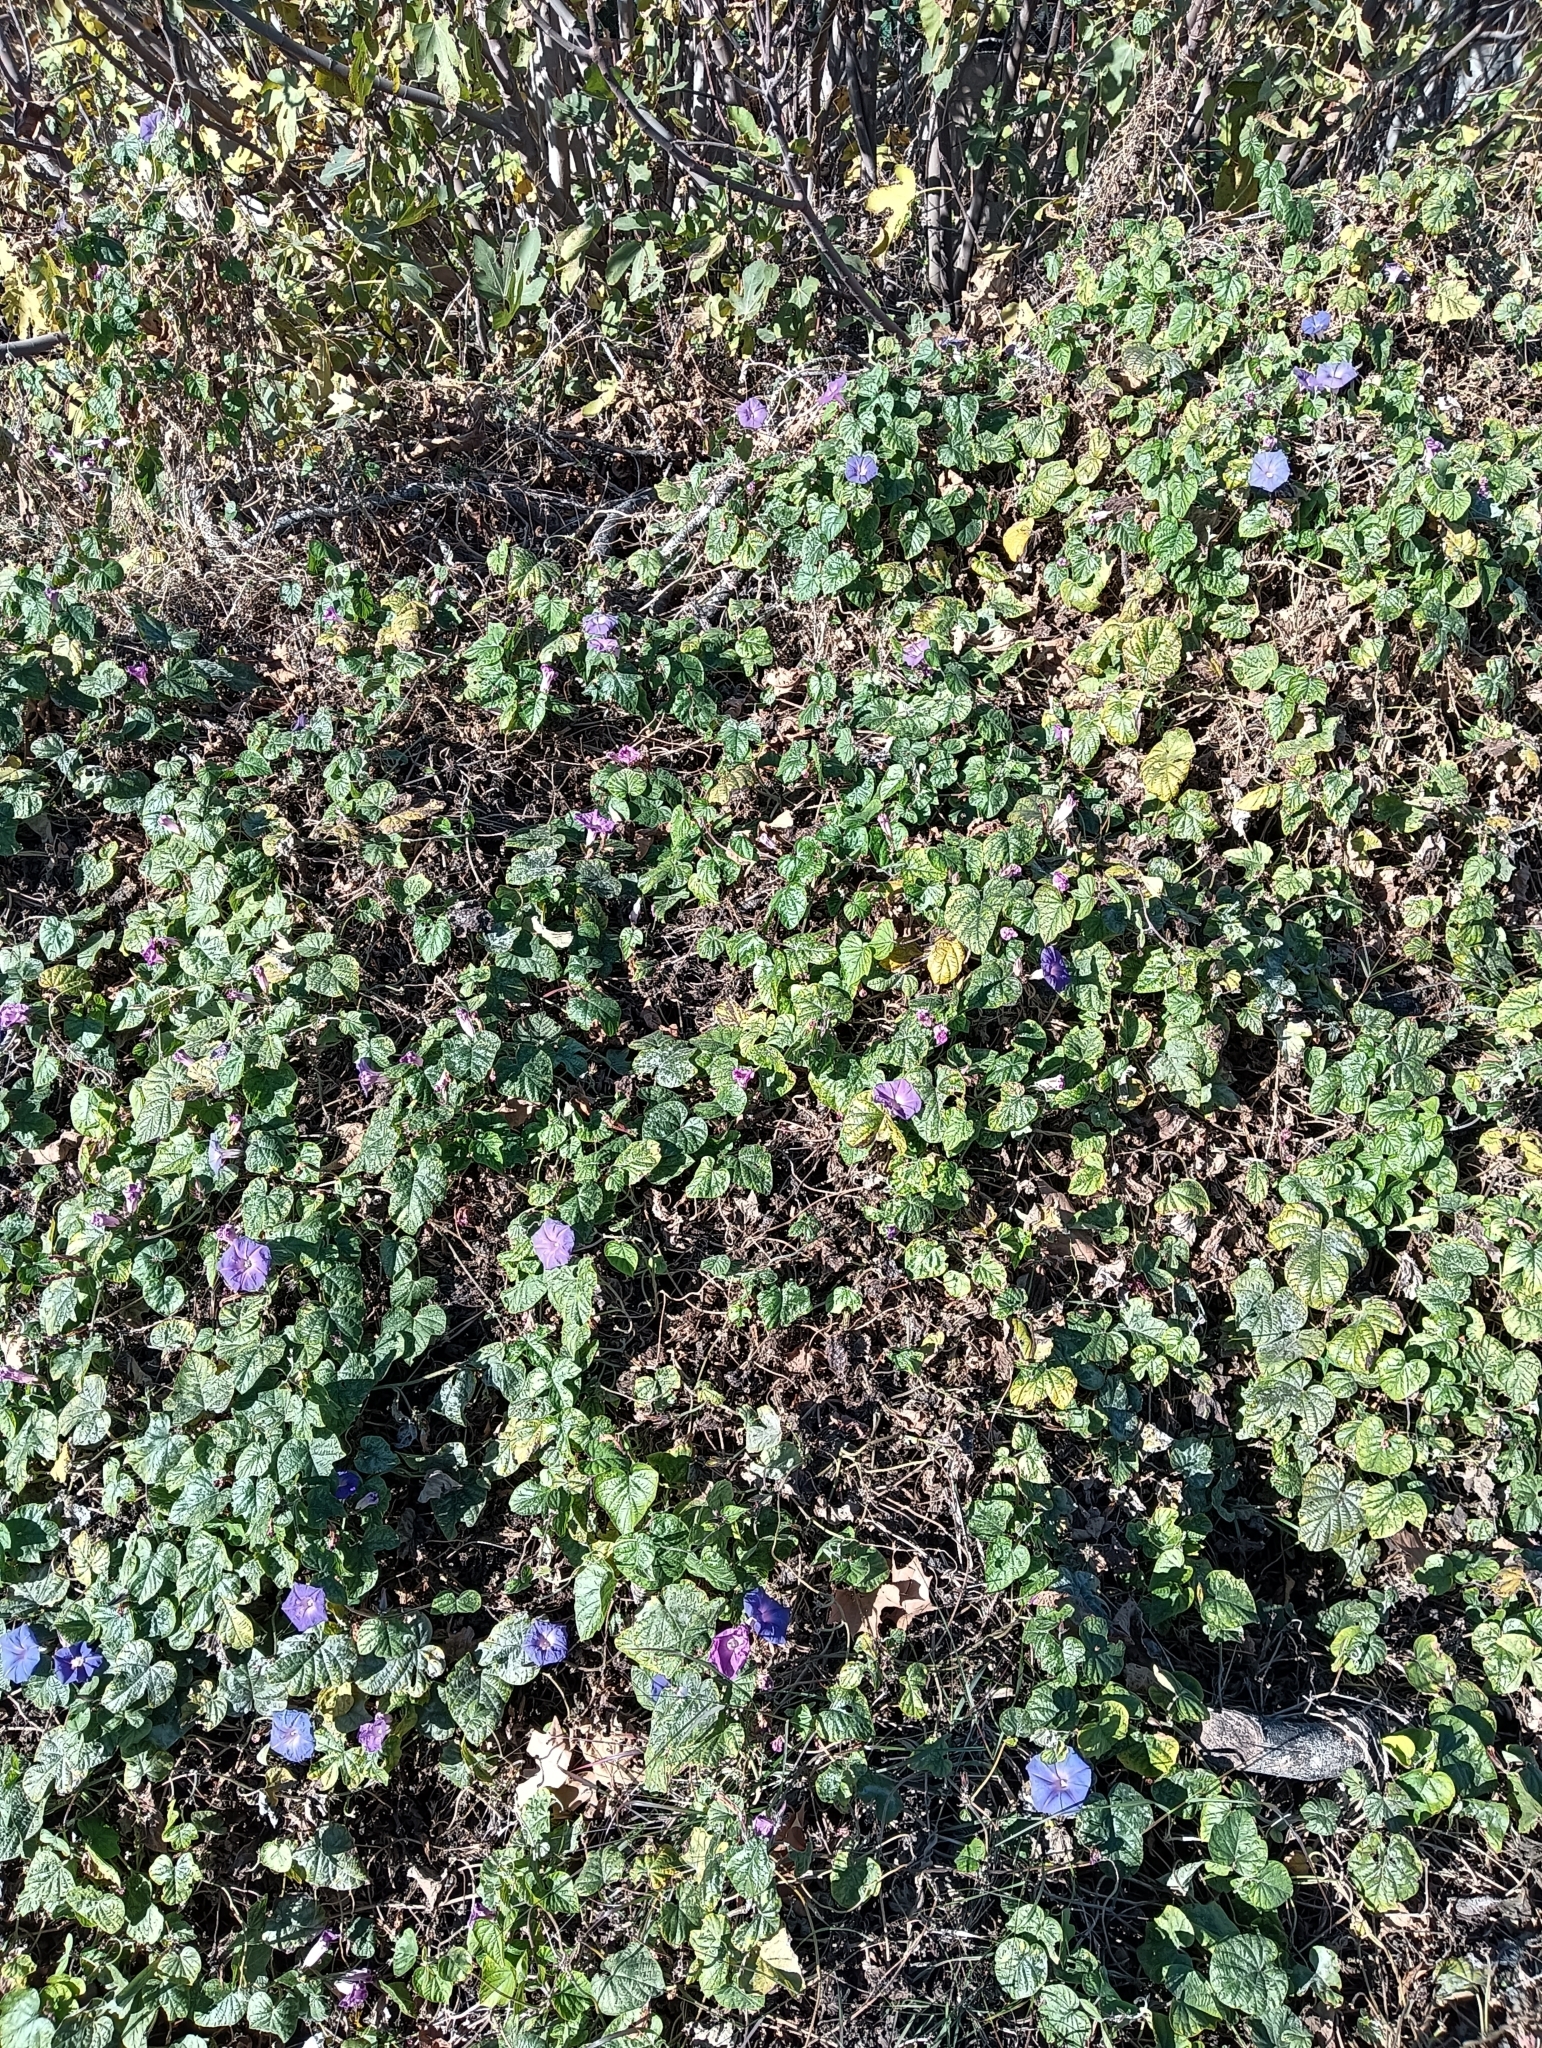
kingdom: Plantae
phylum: Tracheophyta
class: Magnoliopsida
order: Solanales
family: Convolvulaceae
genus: Ipomoea
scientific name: Ipomoea indica
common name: Blue dawnflower
